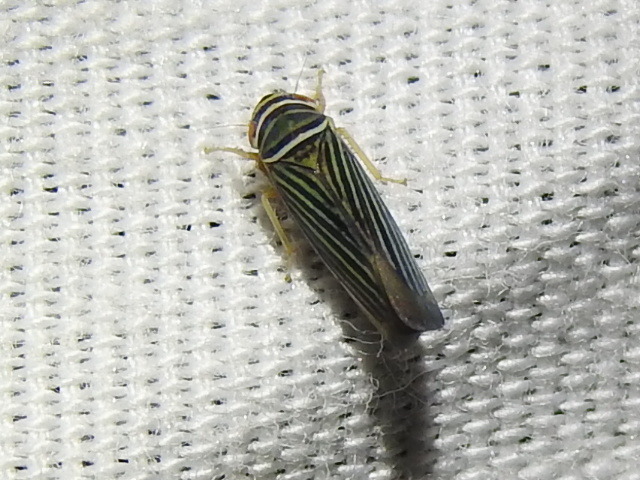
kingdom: Animalia
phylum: Arthropoda
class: Insecta
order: Hemiptera
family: Cicadellidae
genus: Tylozygus
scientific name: Tylozygus bifidus
